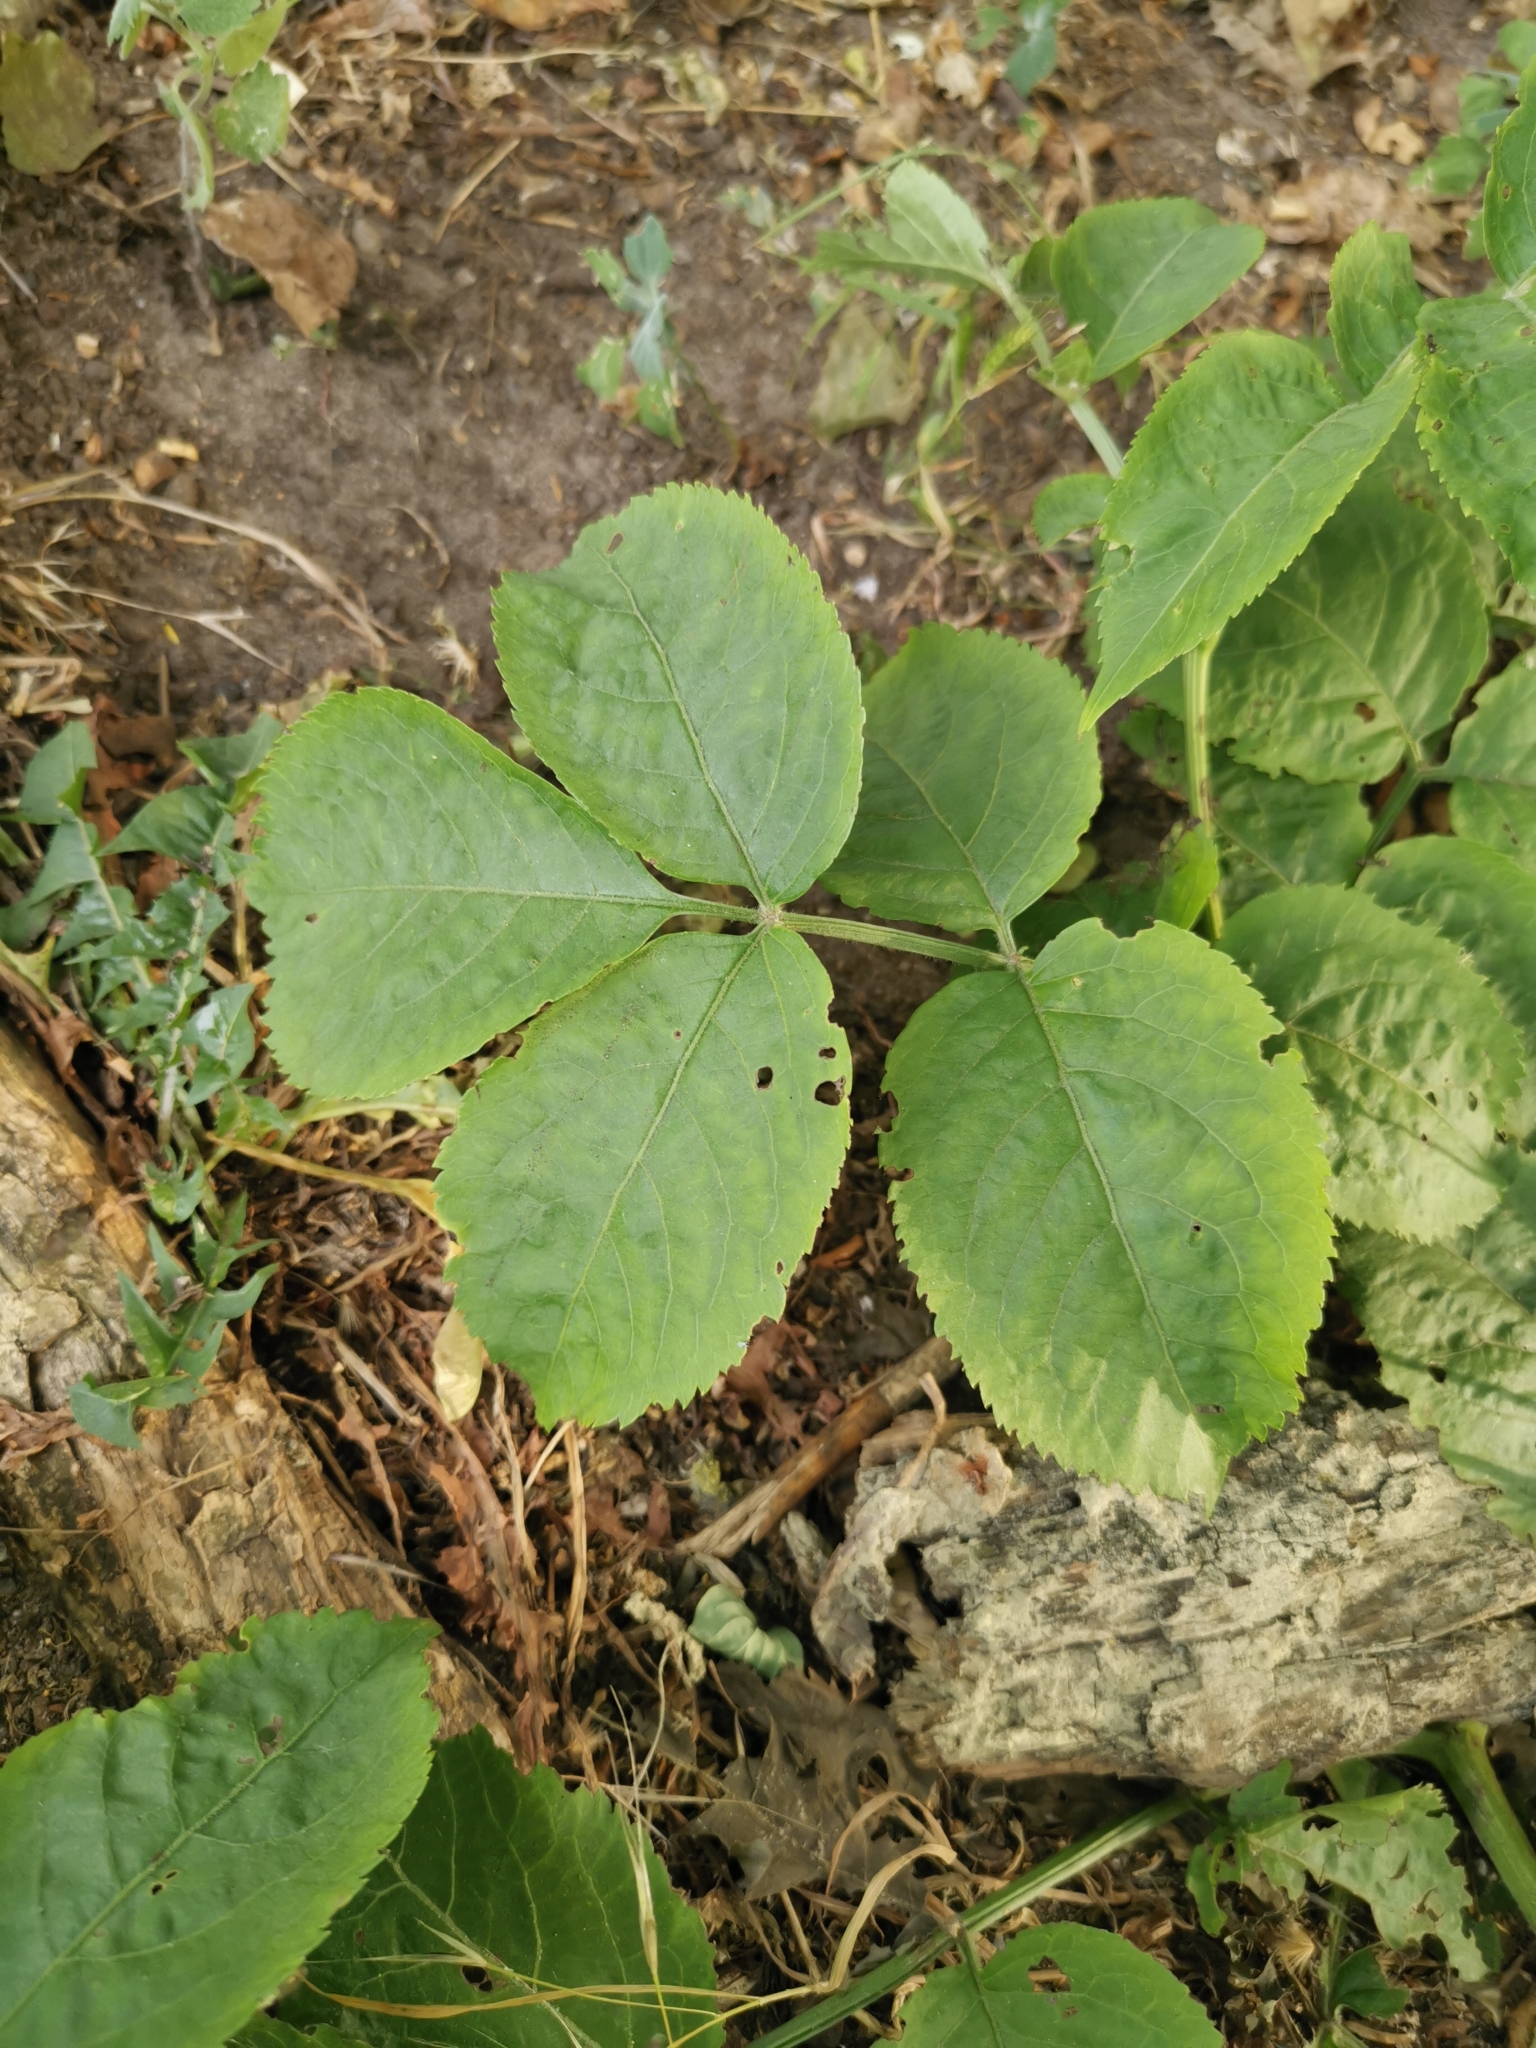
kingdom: Plantae
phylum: Tracheophyta
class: Magnoliopsida
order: Dipsacales
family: Viburnaceae
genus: Sambucus
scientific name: Sambucus nigra
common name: Elder
